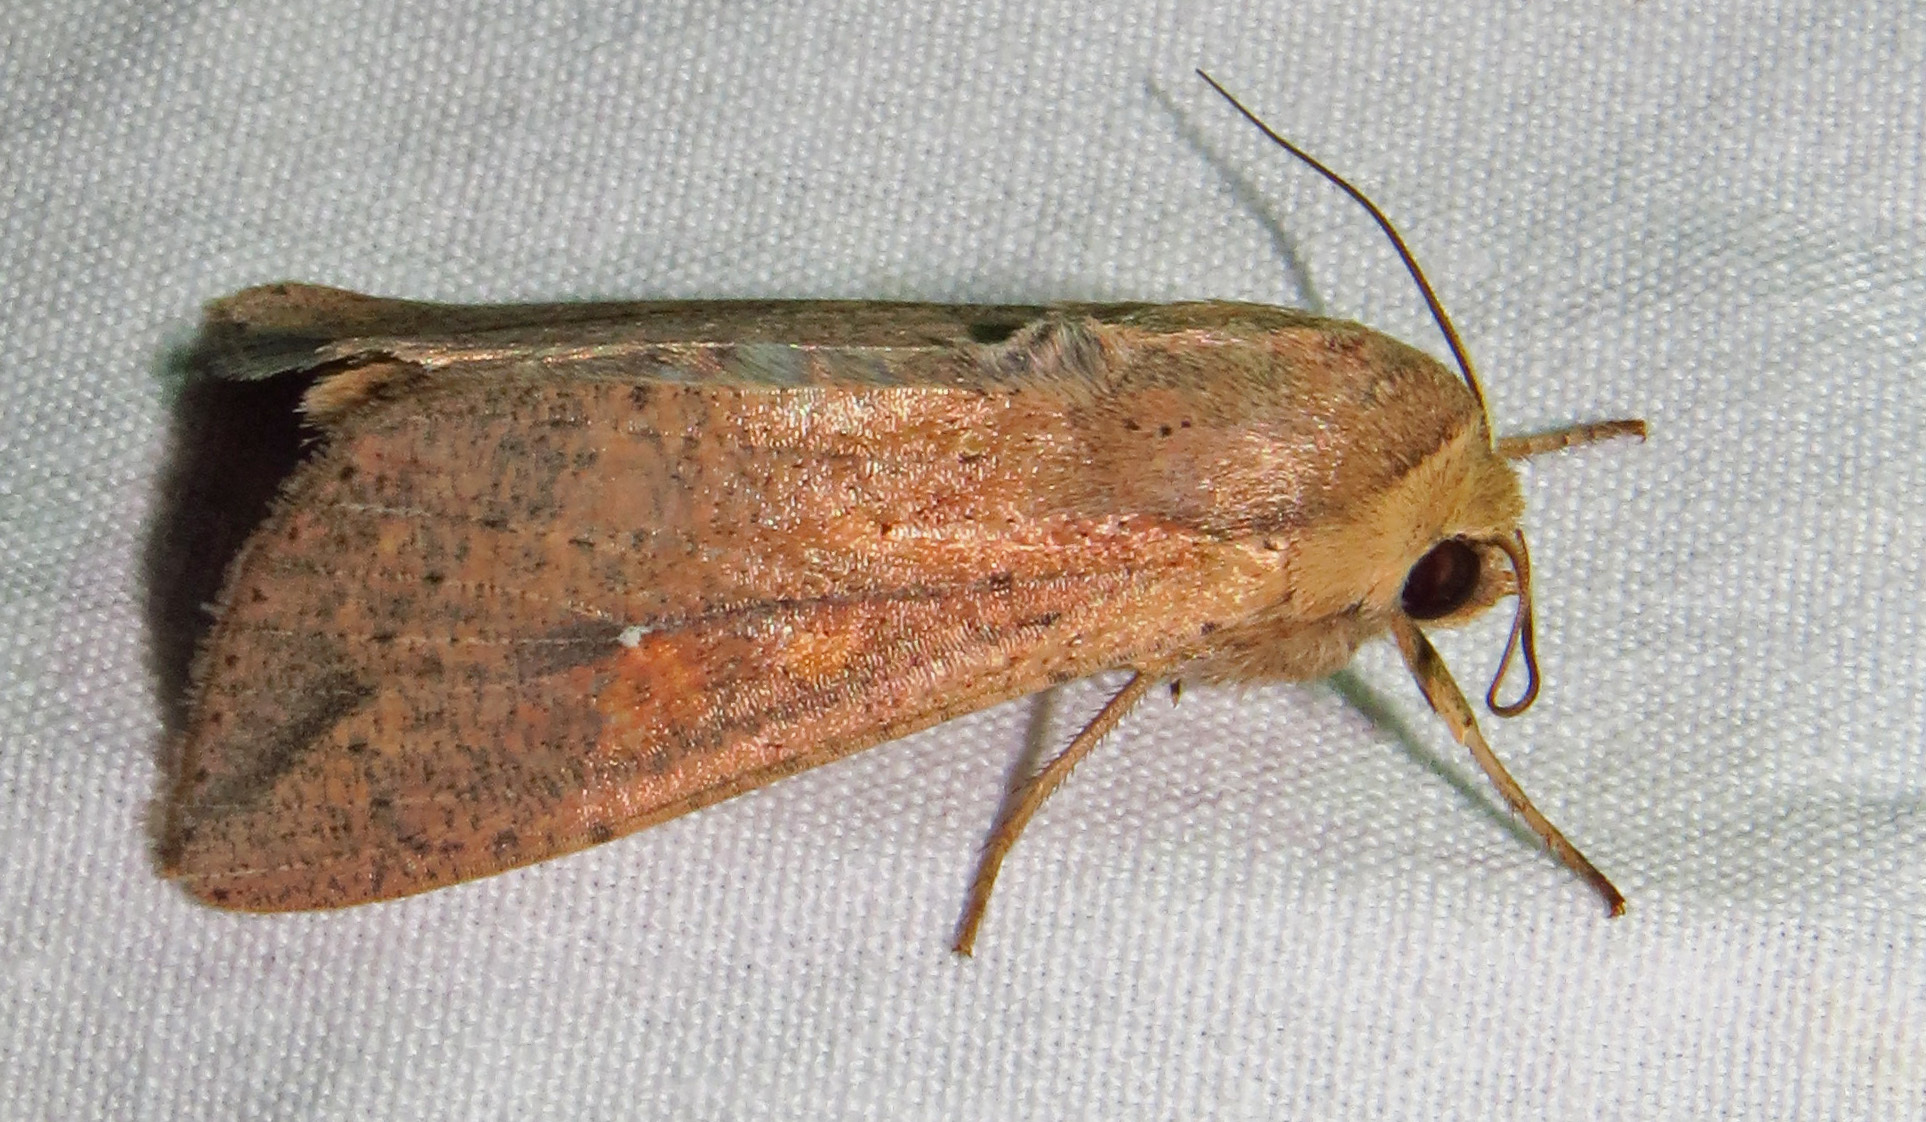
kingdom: Animalia
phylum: Arthropoda
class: Insecta
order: Lepidoptera
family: Noctuidae
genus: Mythimna
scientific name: Mythimna unipuncta
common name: White-speck
